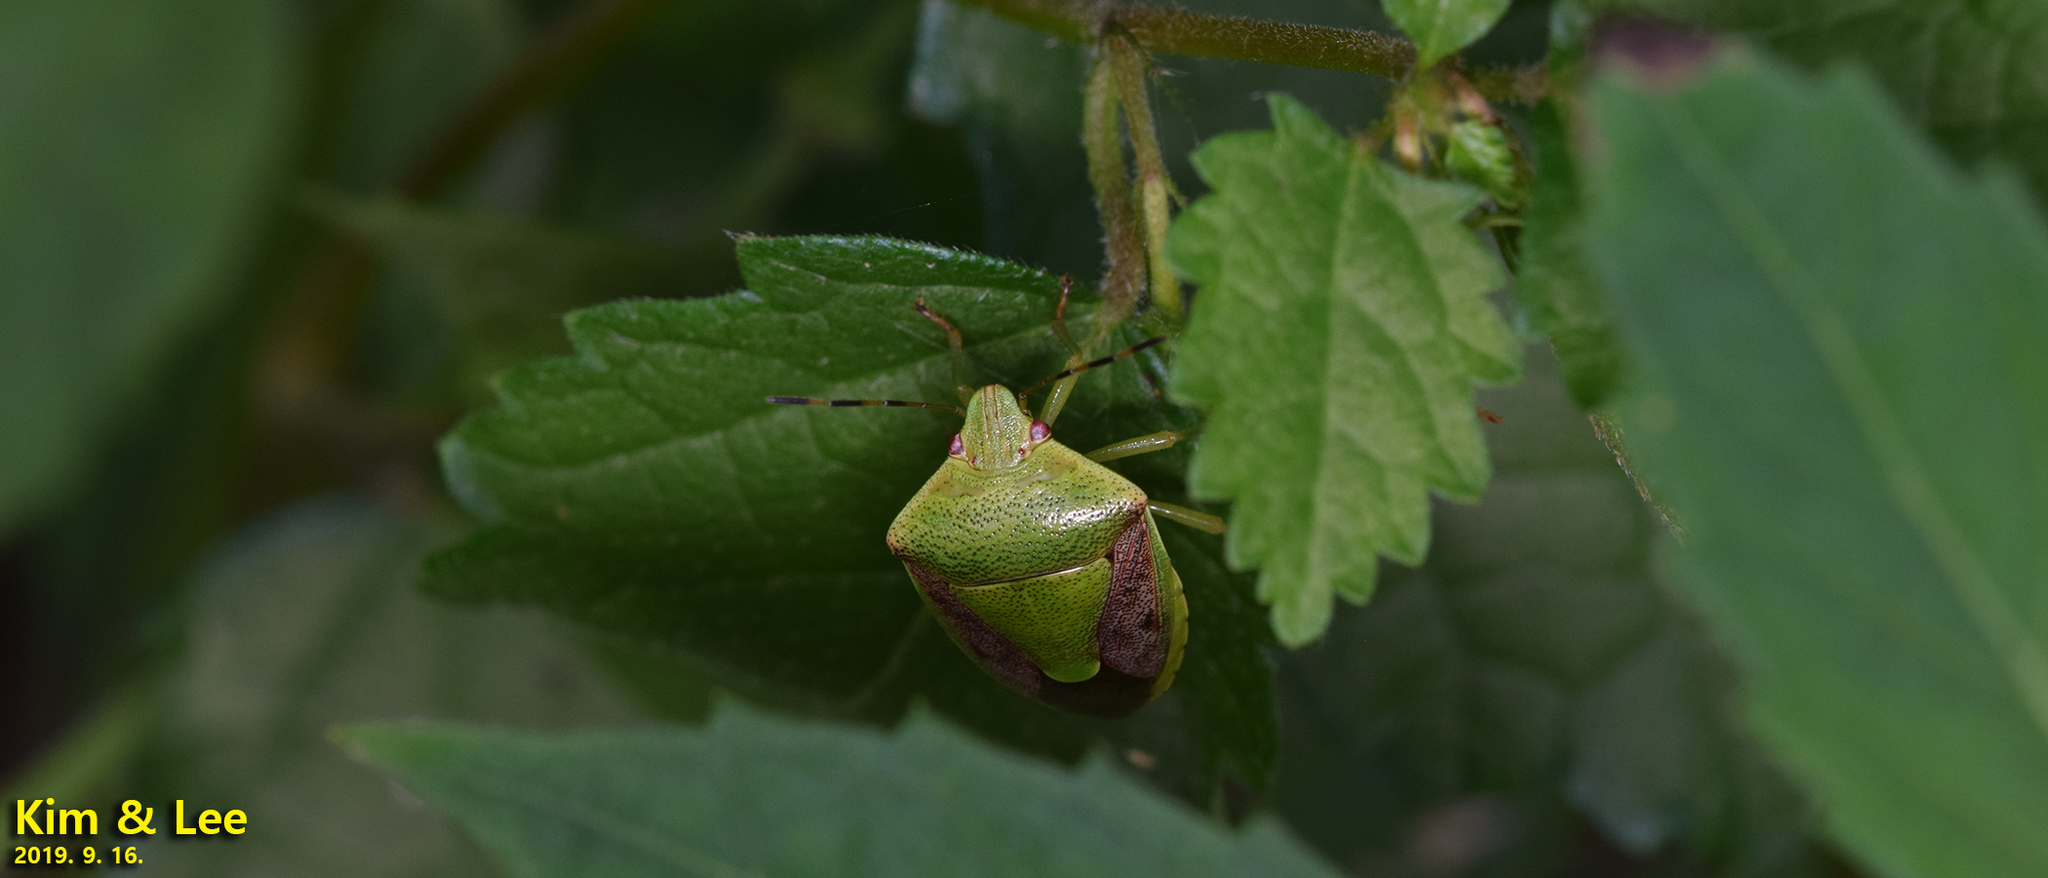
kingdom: Animalia
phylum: Arthropoda
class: Insecta
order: Hemiptera
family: Pentatomidae
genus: Plautia
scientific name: Plautia stali
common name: Stink bug
